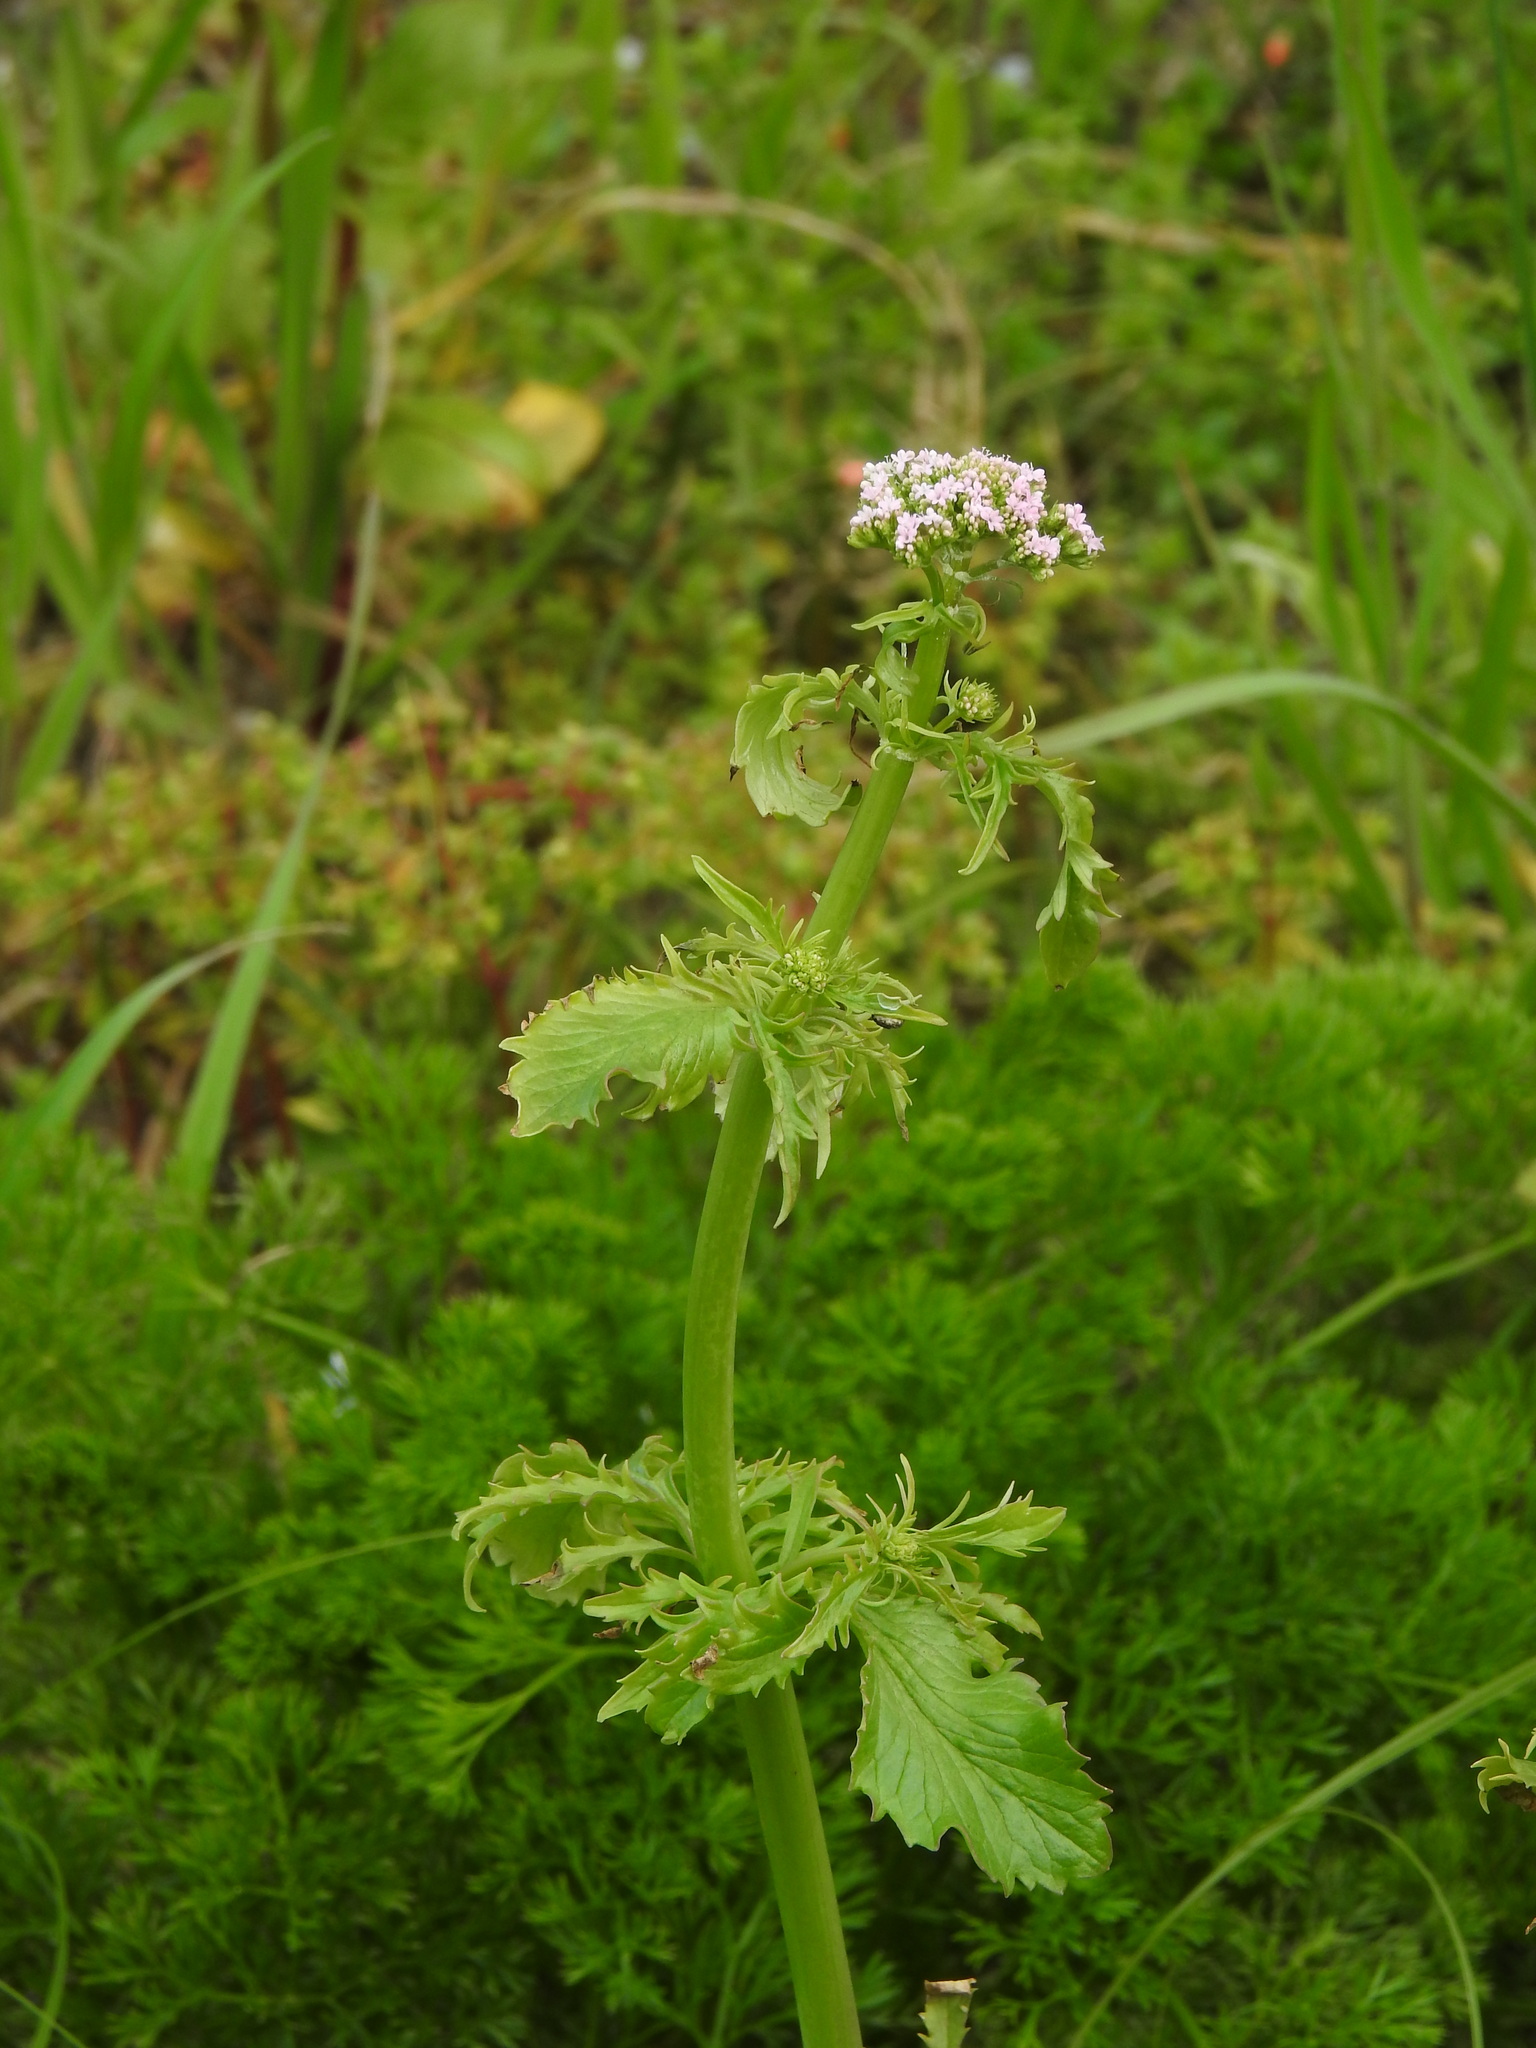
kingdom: Plantae
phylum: Tracheophyta
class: Magnoliopsida
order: Dipsacales
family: Caprifoliaceae
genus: Centranthus
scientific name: Centranthus calcitrapae
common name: Annual valerian
